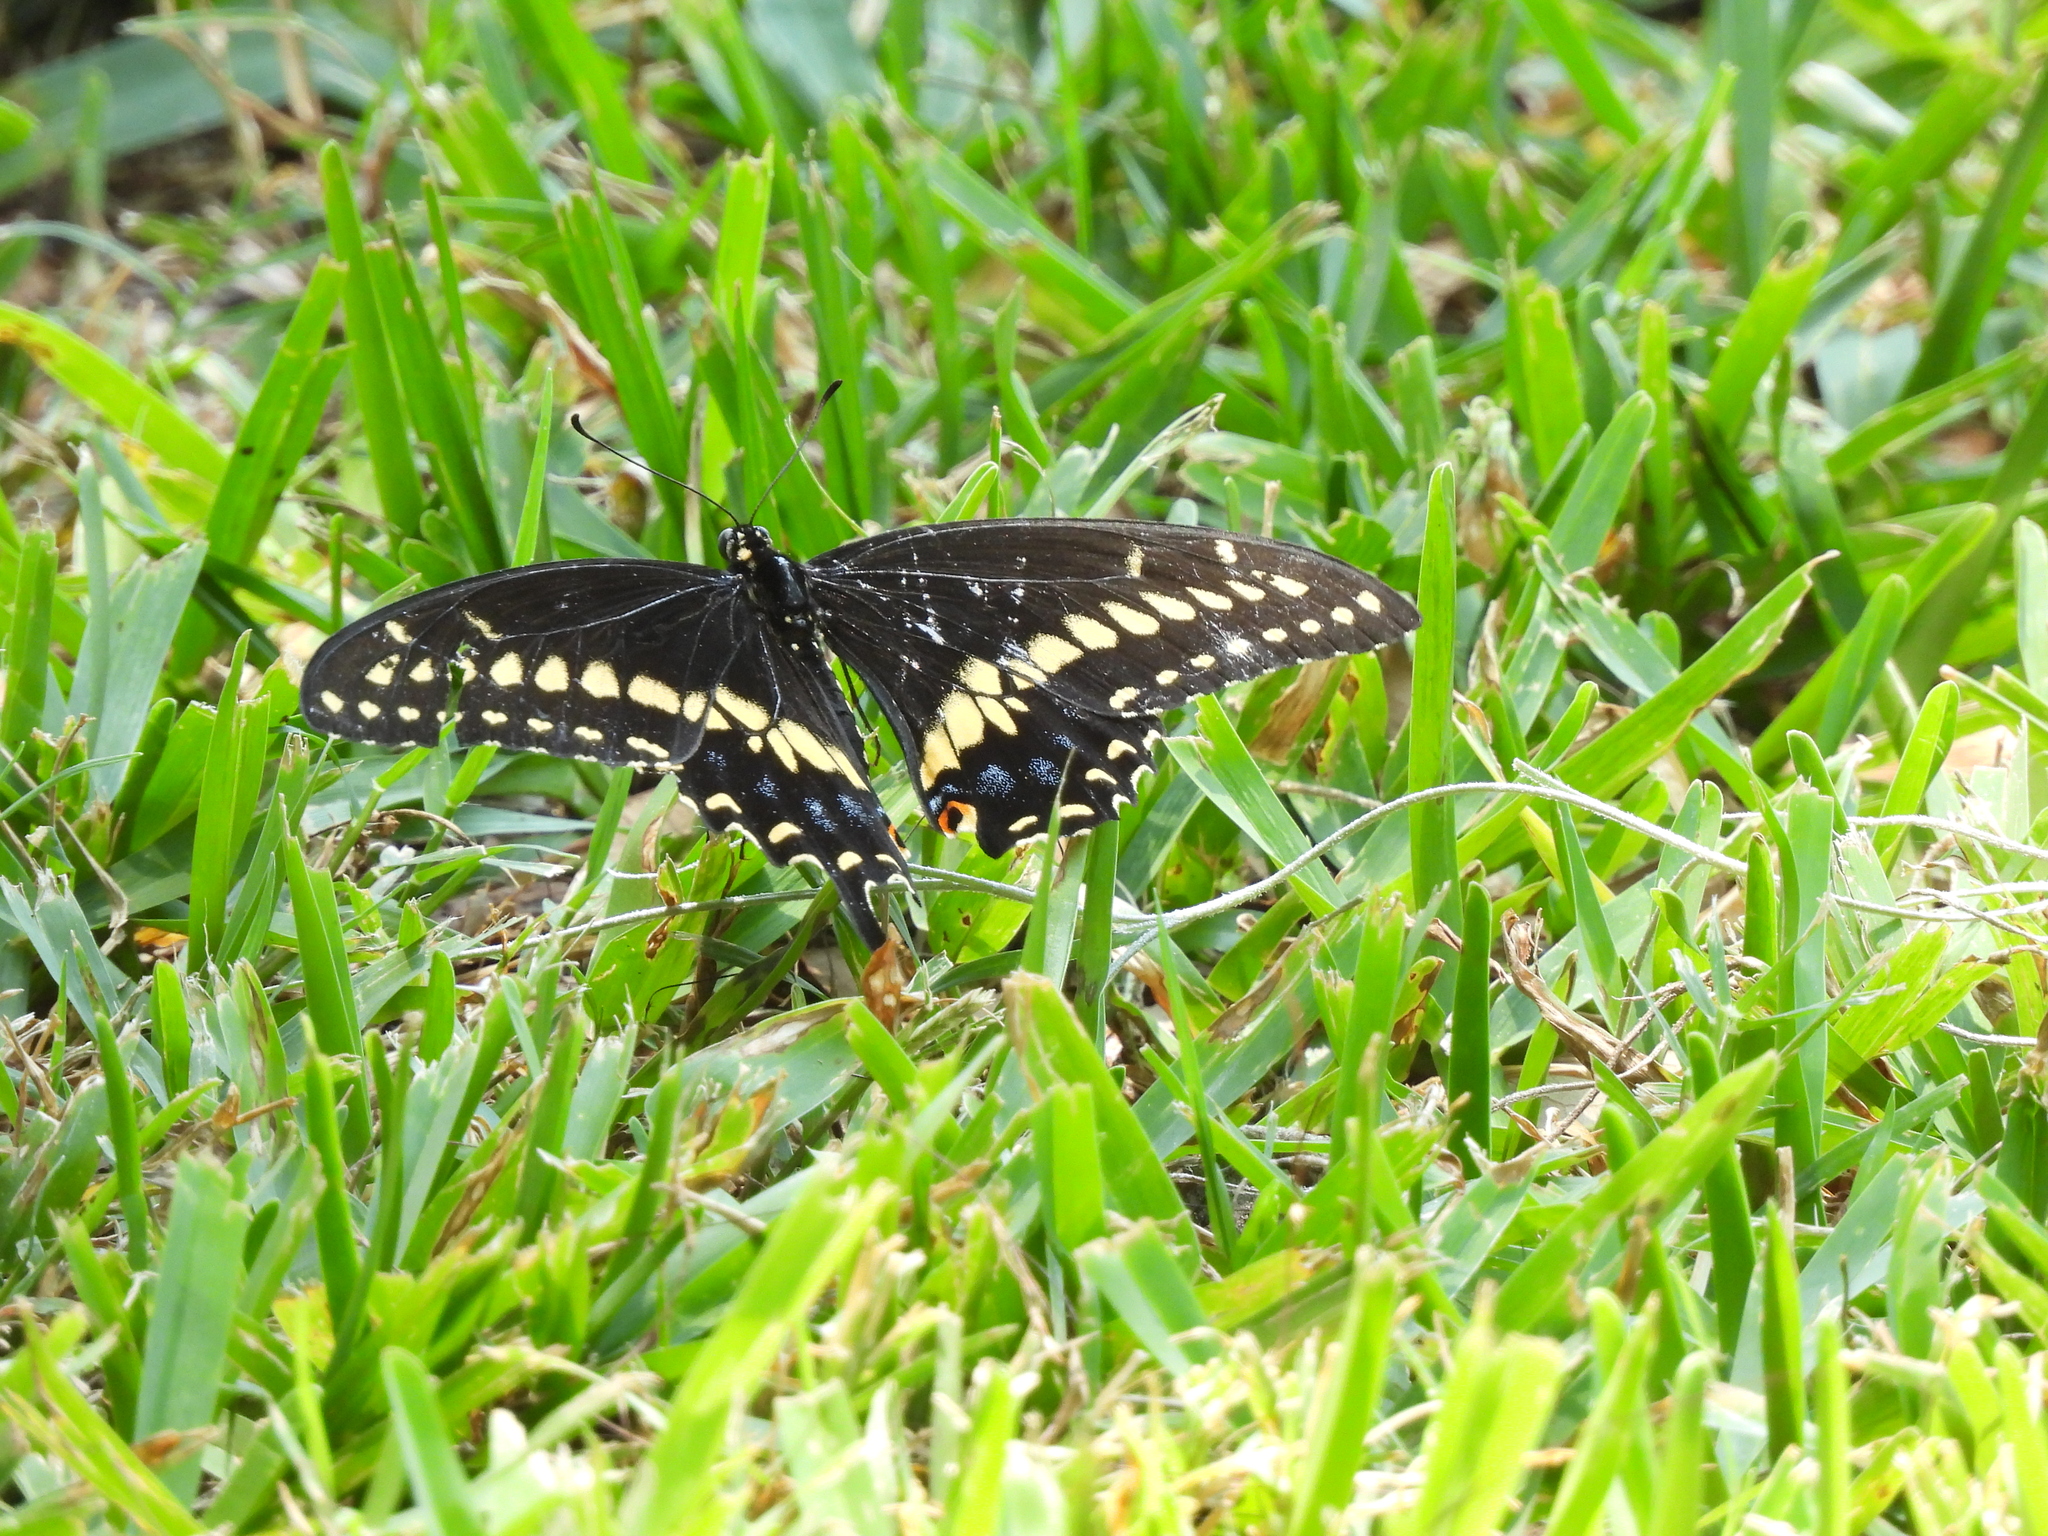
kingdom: Animalia
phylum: Arthropoda
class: Insecta
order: Lepidoptera
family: Papilionidae
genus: Papilio
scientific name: Papilio polyxenes
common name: Black swallowtail
